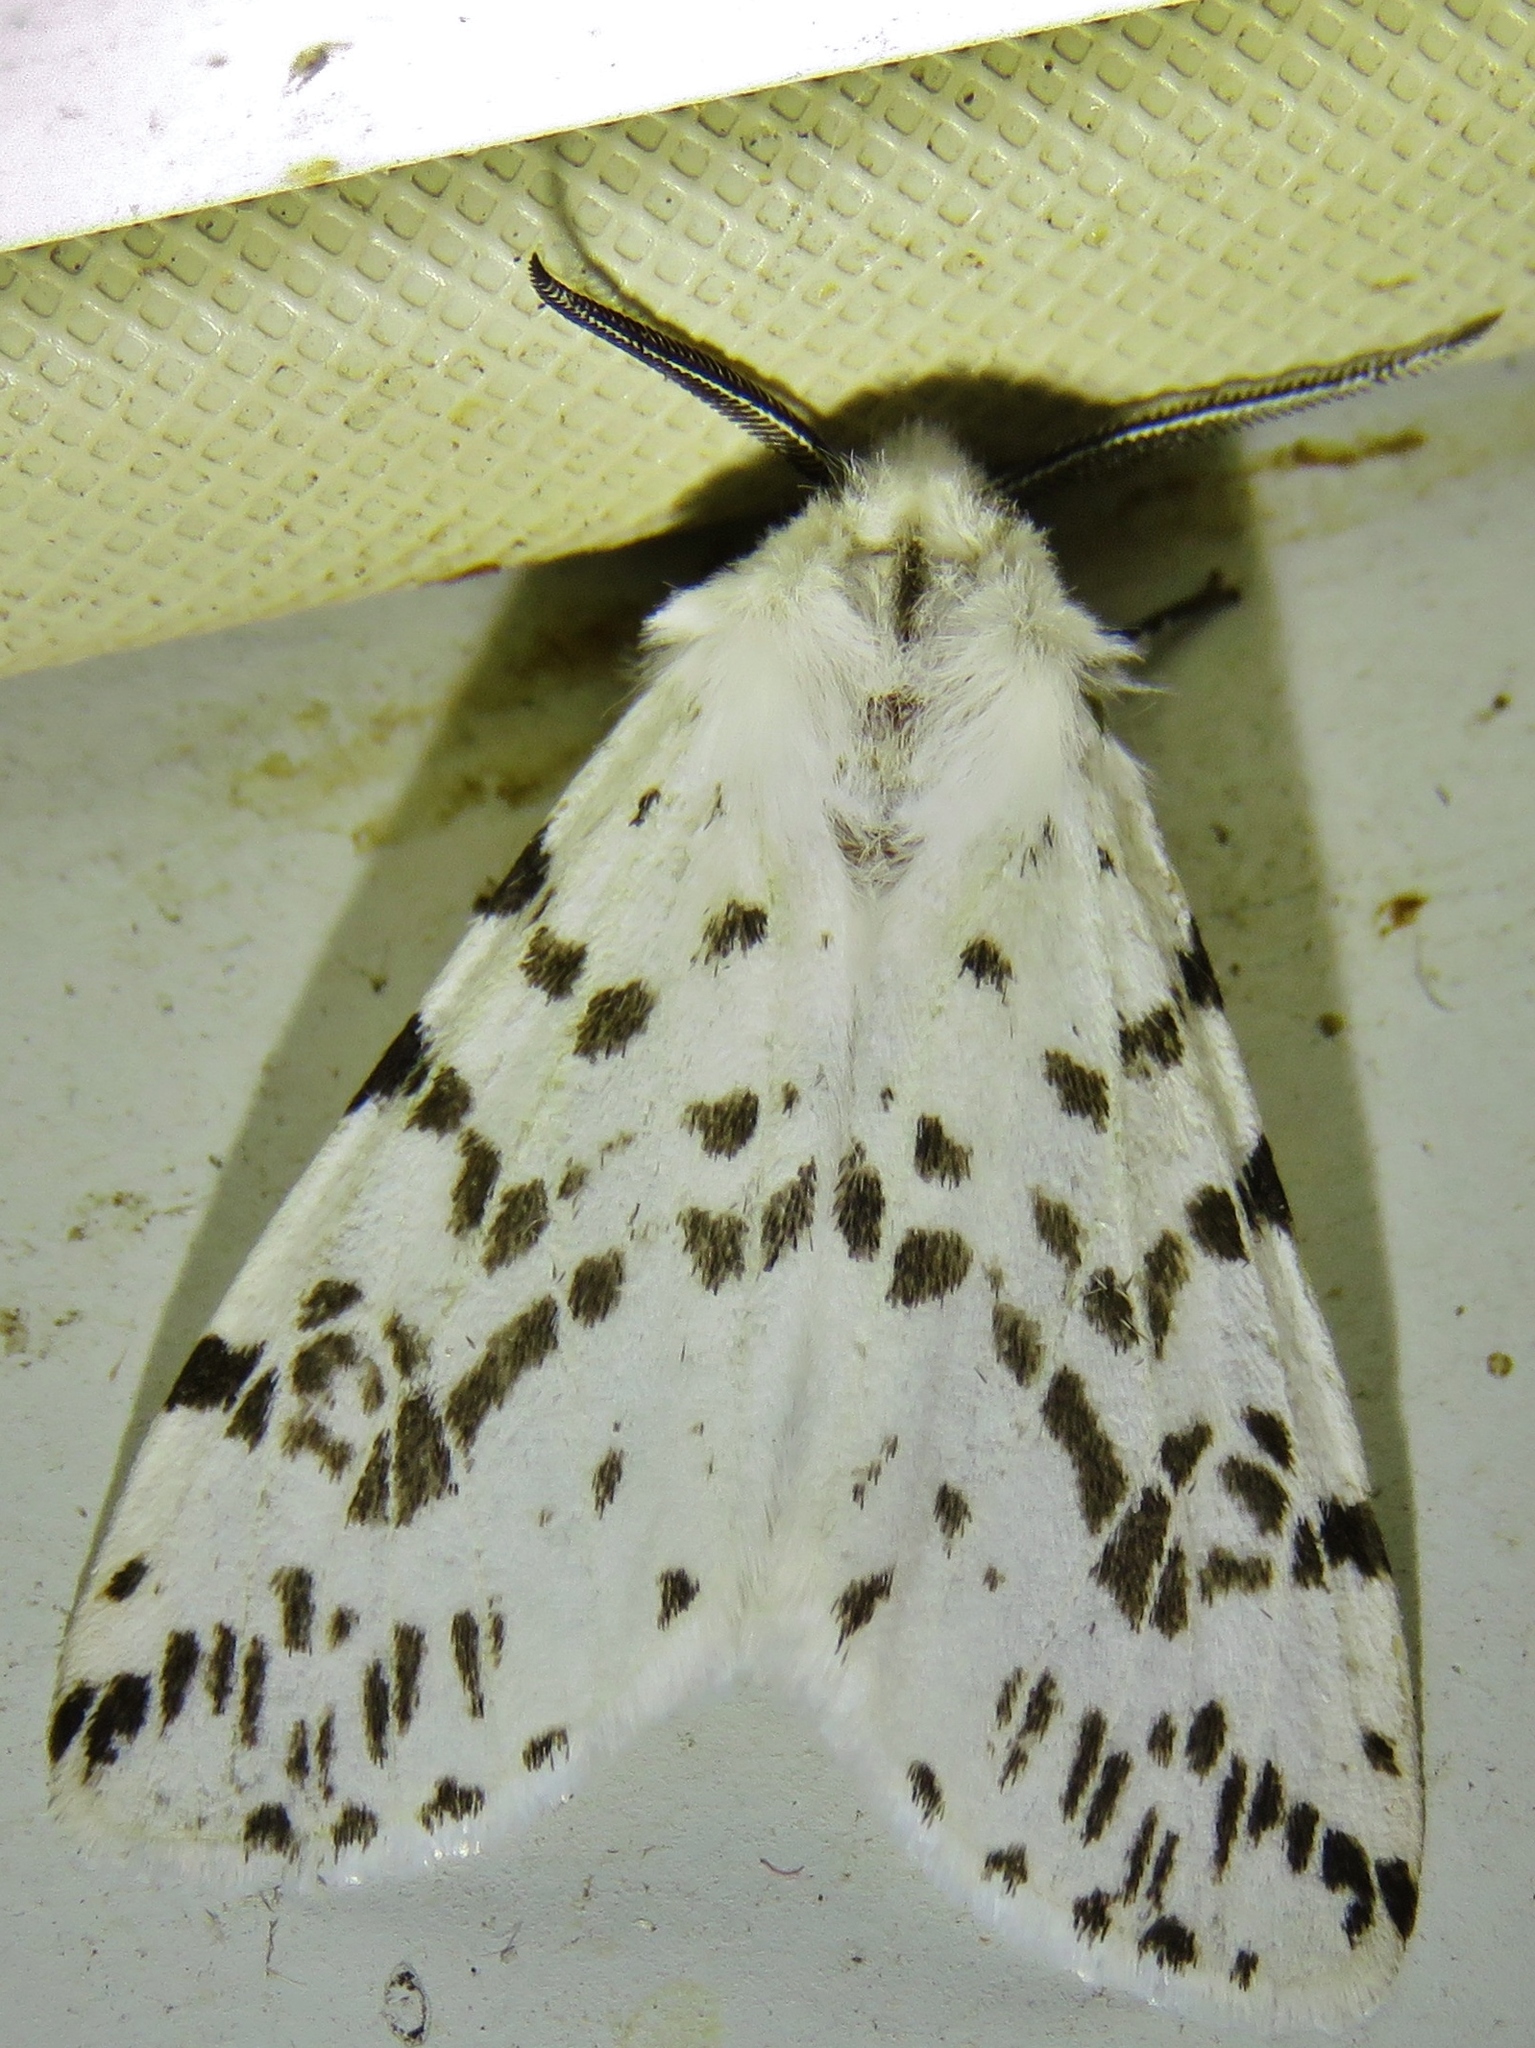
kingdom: Animalia
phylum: Arthropoda
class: Insecta
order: Lepidoptera
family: Erebidae
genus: Hyphantria
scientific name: Hyphantria cunea
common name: American white moth
